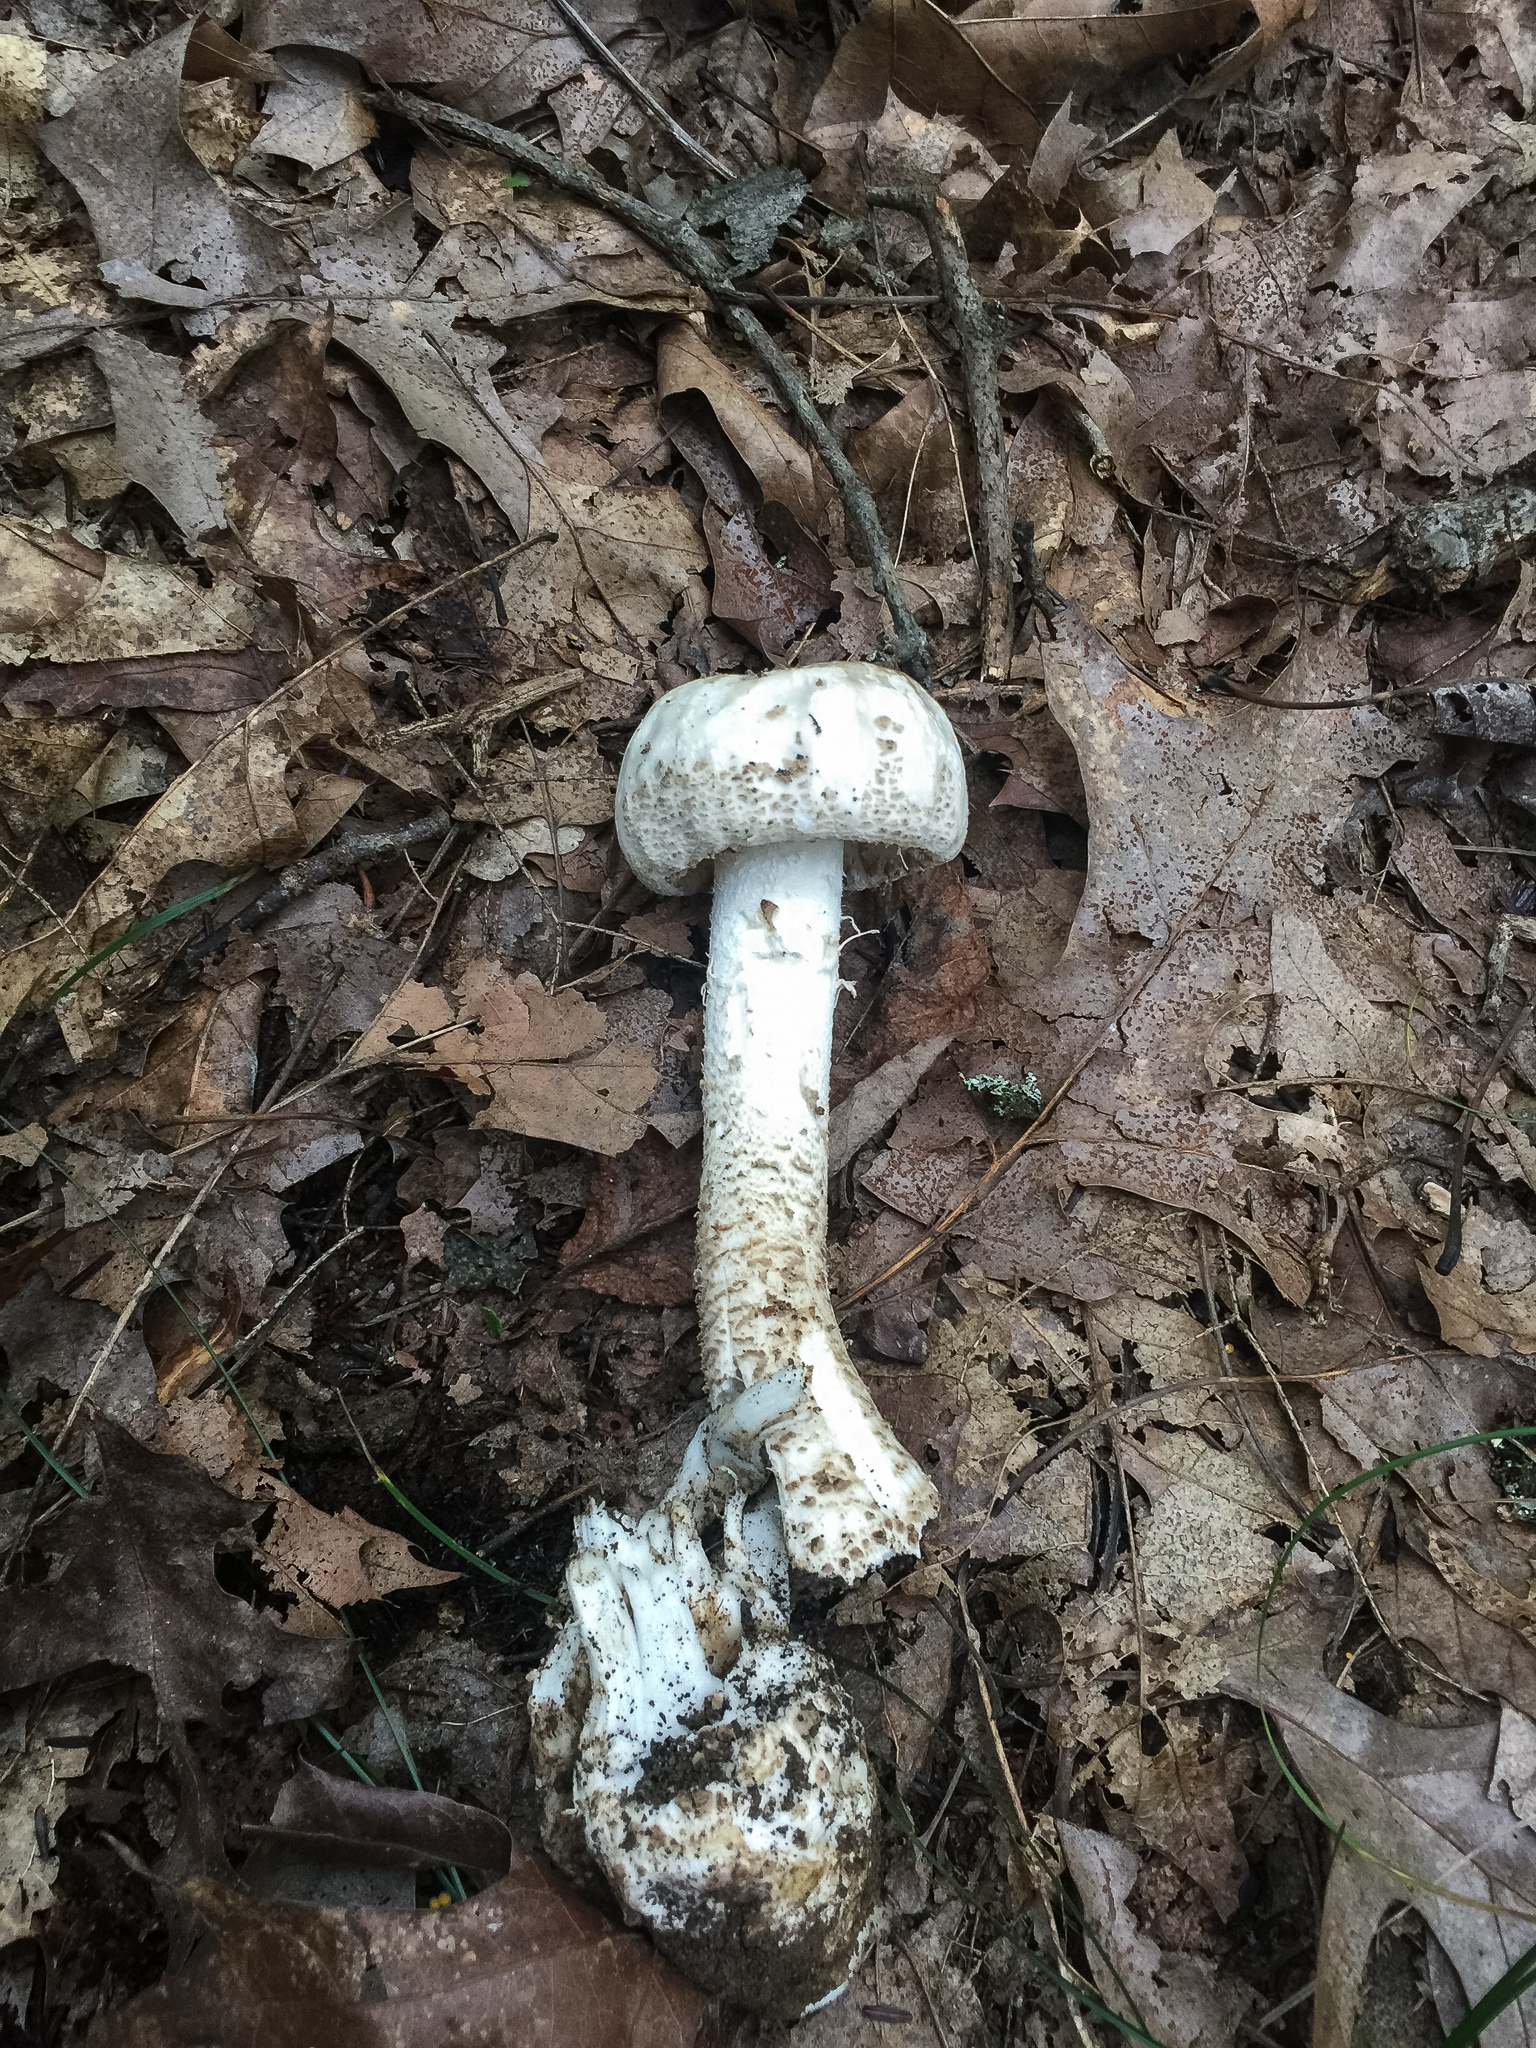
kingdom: Fungi
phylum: Basidiomycota
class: Agaricomycetes
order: Agaricales
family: Amanitaceae
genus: Amanita
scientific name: Amanita onusta
